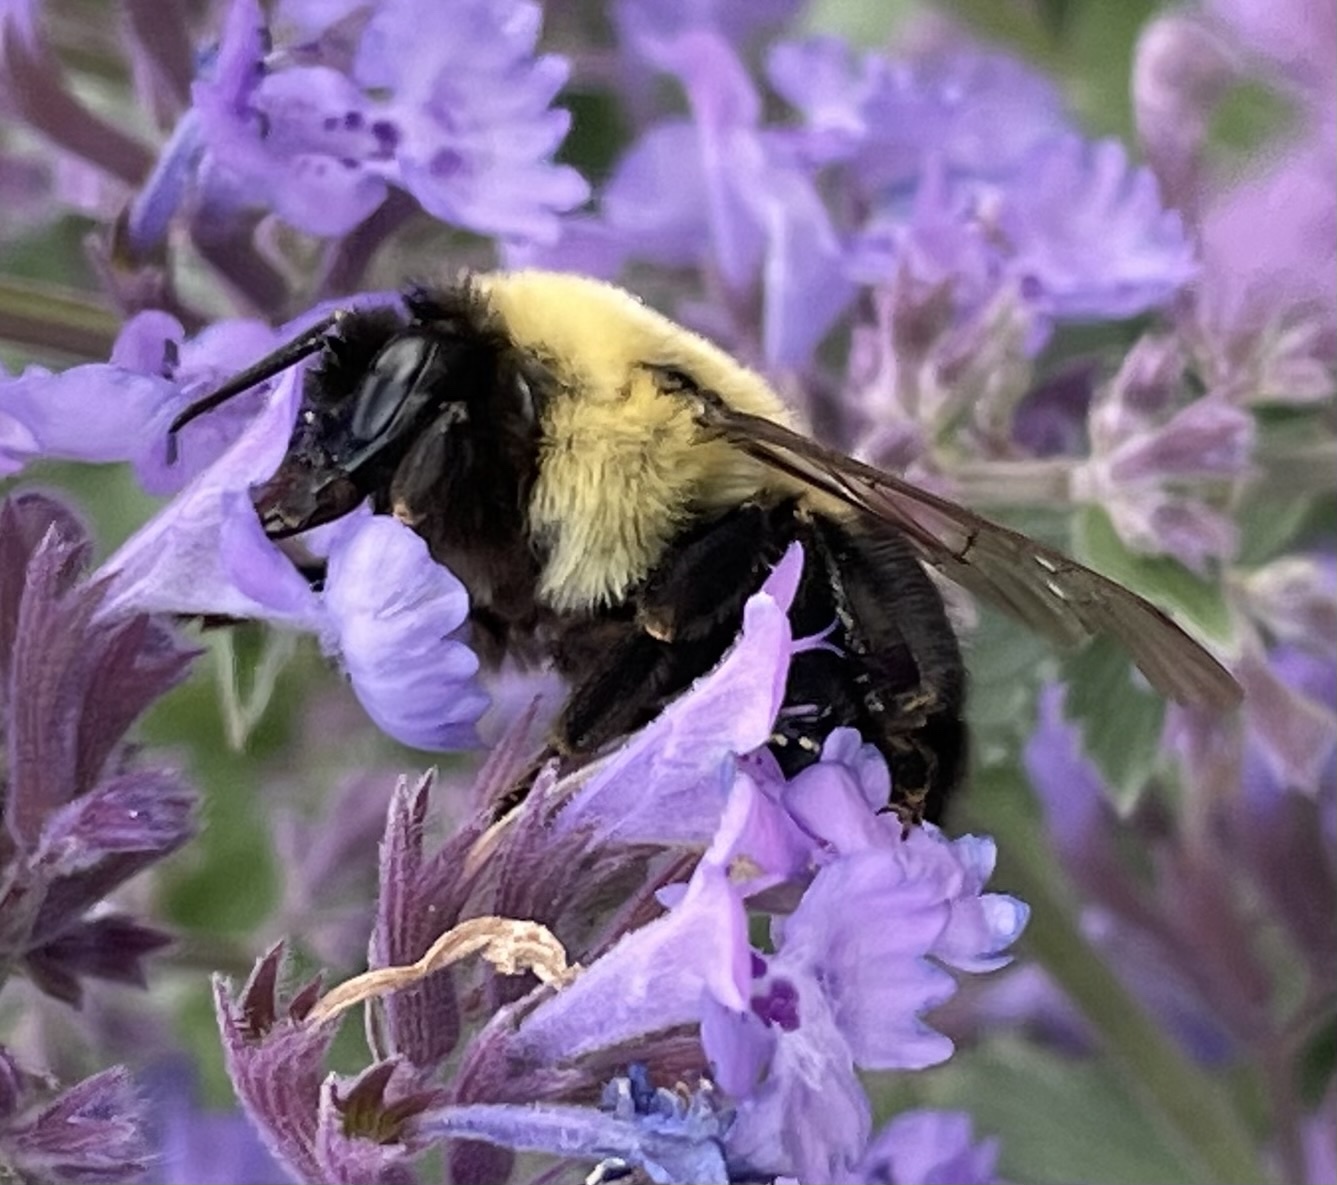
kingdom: Animalia
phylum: Arthropoda
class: Insecta
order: Hymenoptera
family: Apidae
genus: Bombus
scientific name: Bombus impatiens
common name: Common eastern bumble bee
